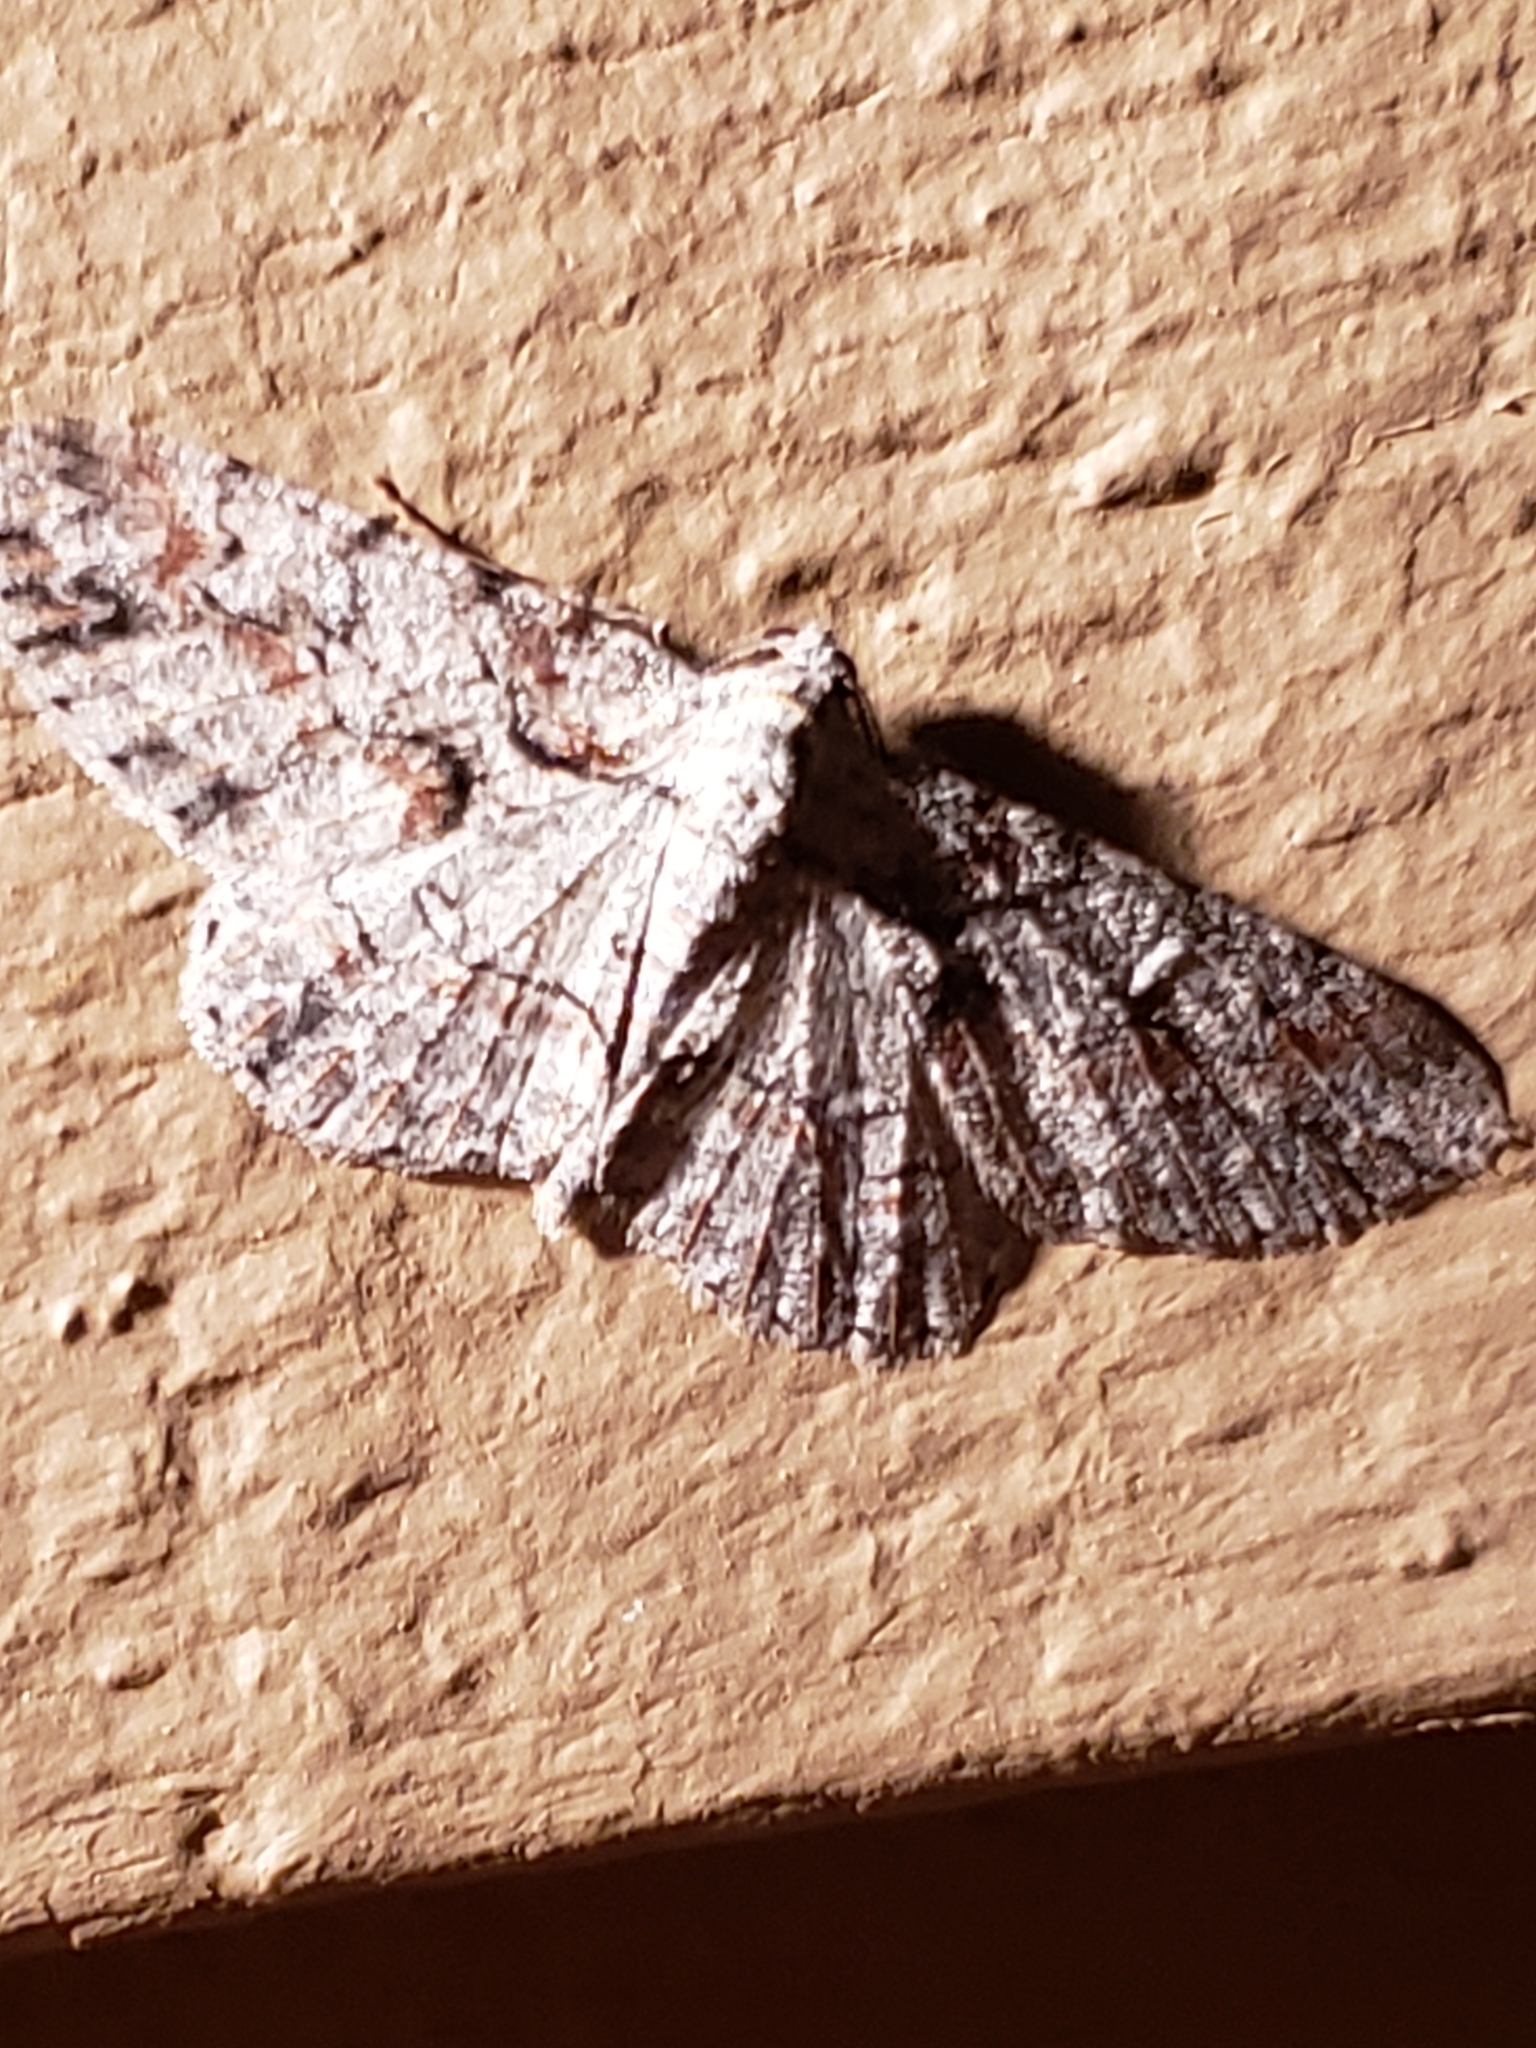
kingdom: Animalia
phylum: Arthropoda
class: Insecta
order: Lepidoptera
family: Geometridae
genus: Iridopsis
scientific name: Iridopsis defectaria
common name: Brown-shaded gray
